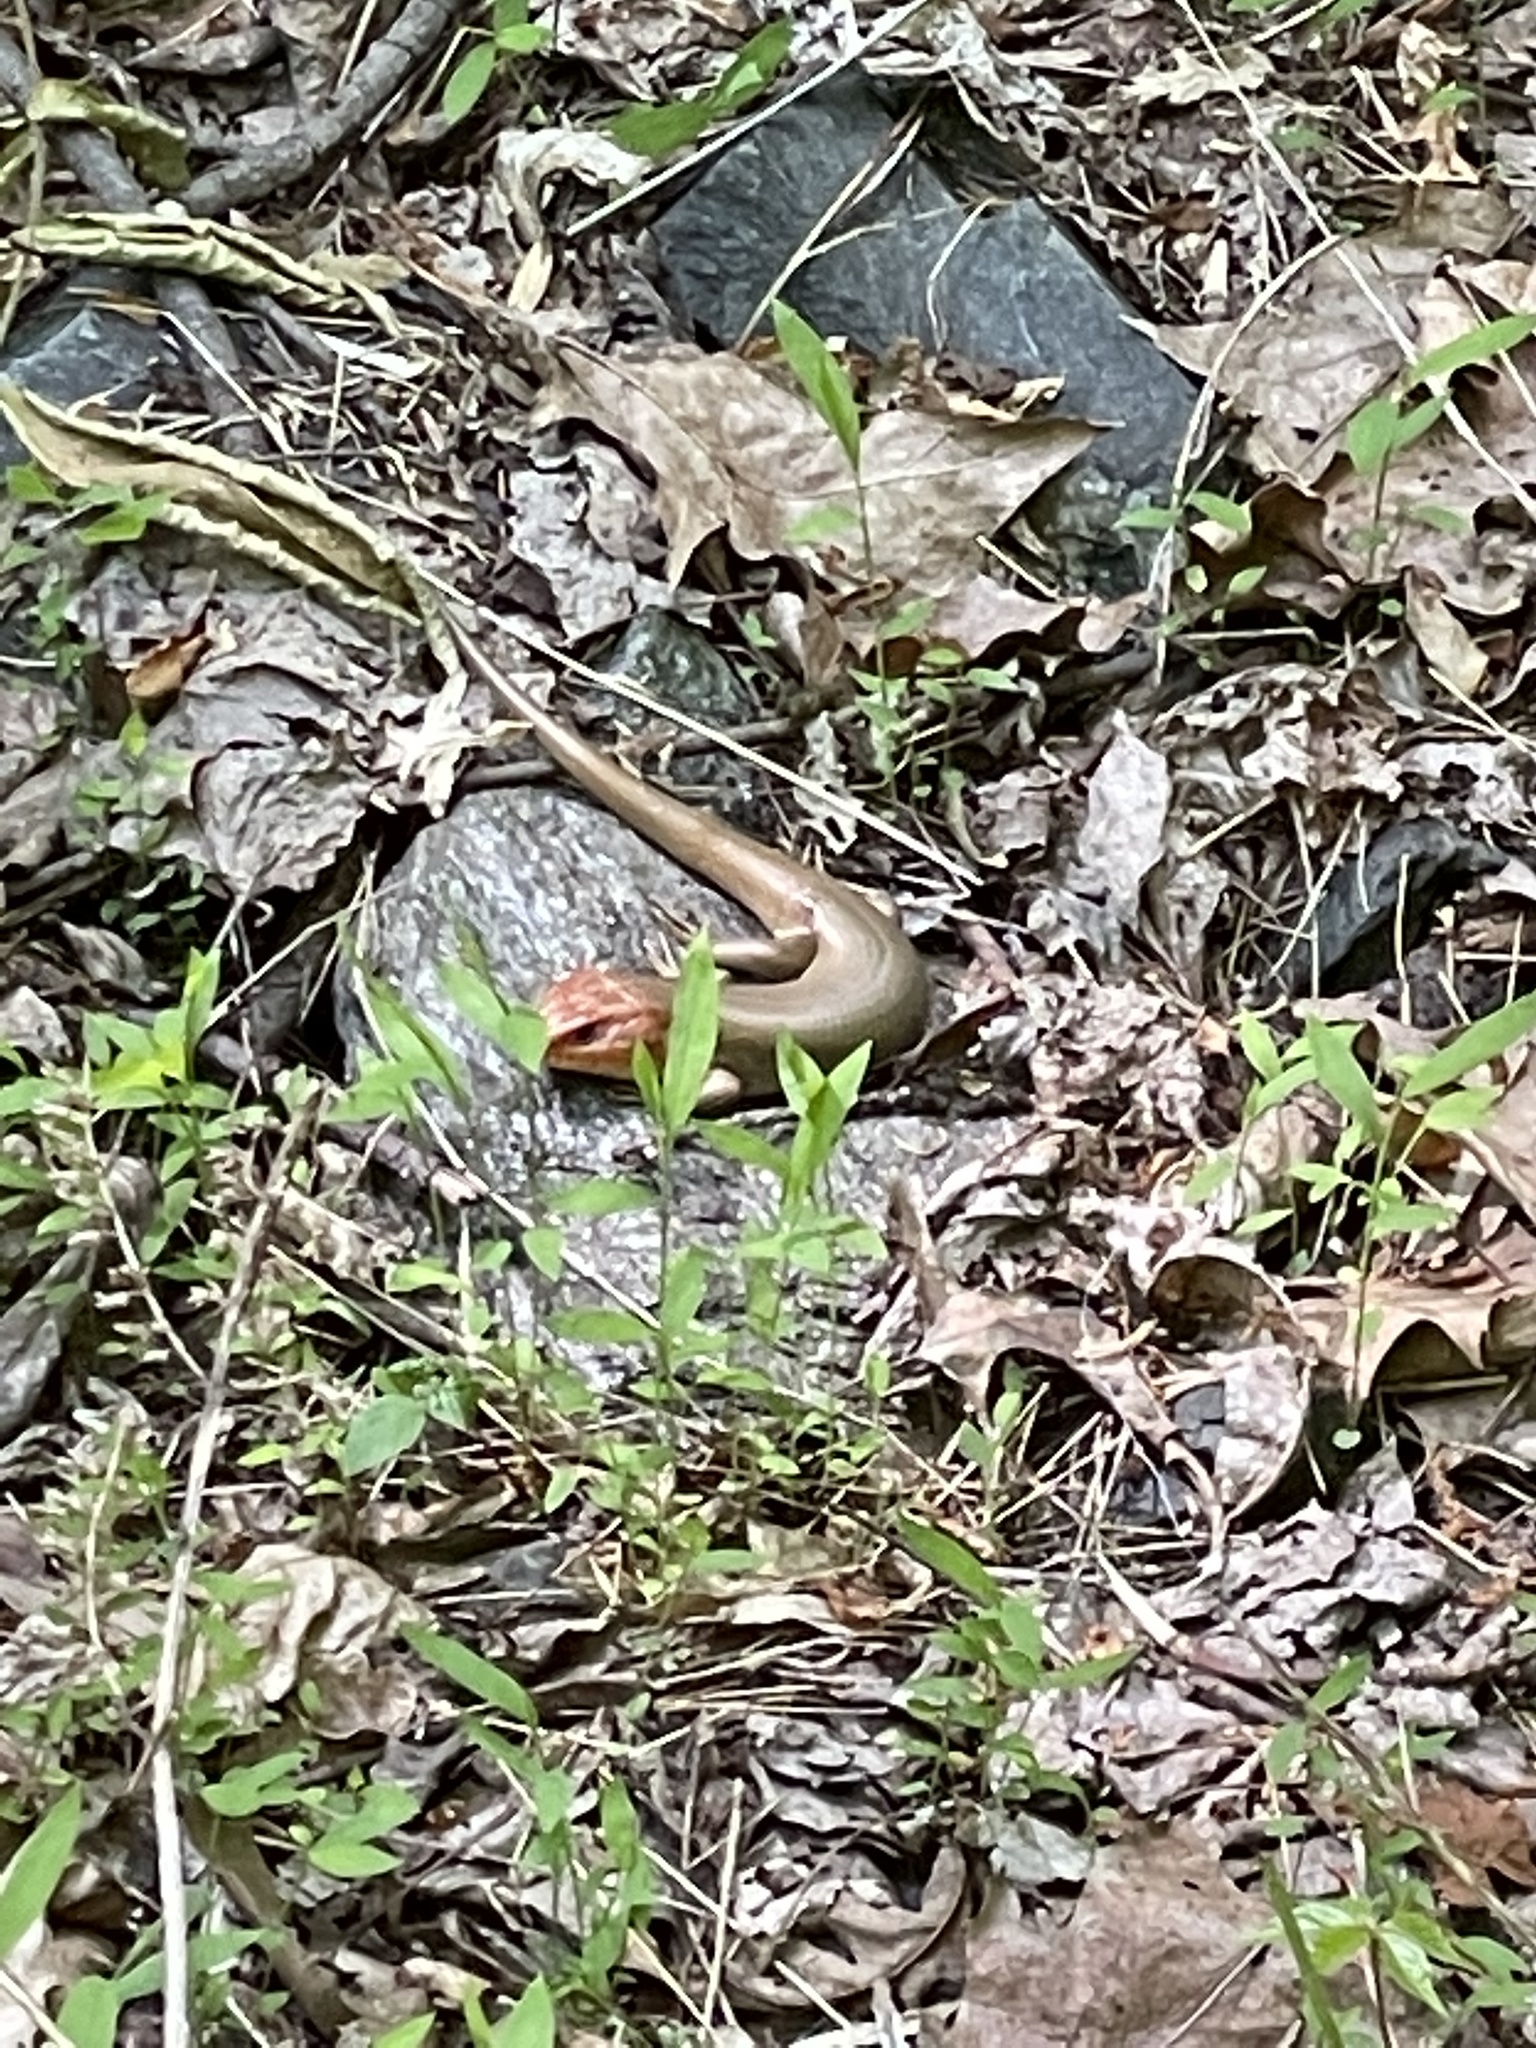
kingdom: Animalia
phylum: Chordata
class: Squamata
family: Scincidae
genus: Plestiodon
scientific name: Plestiodon laticeps
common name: Broadhead skink
